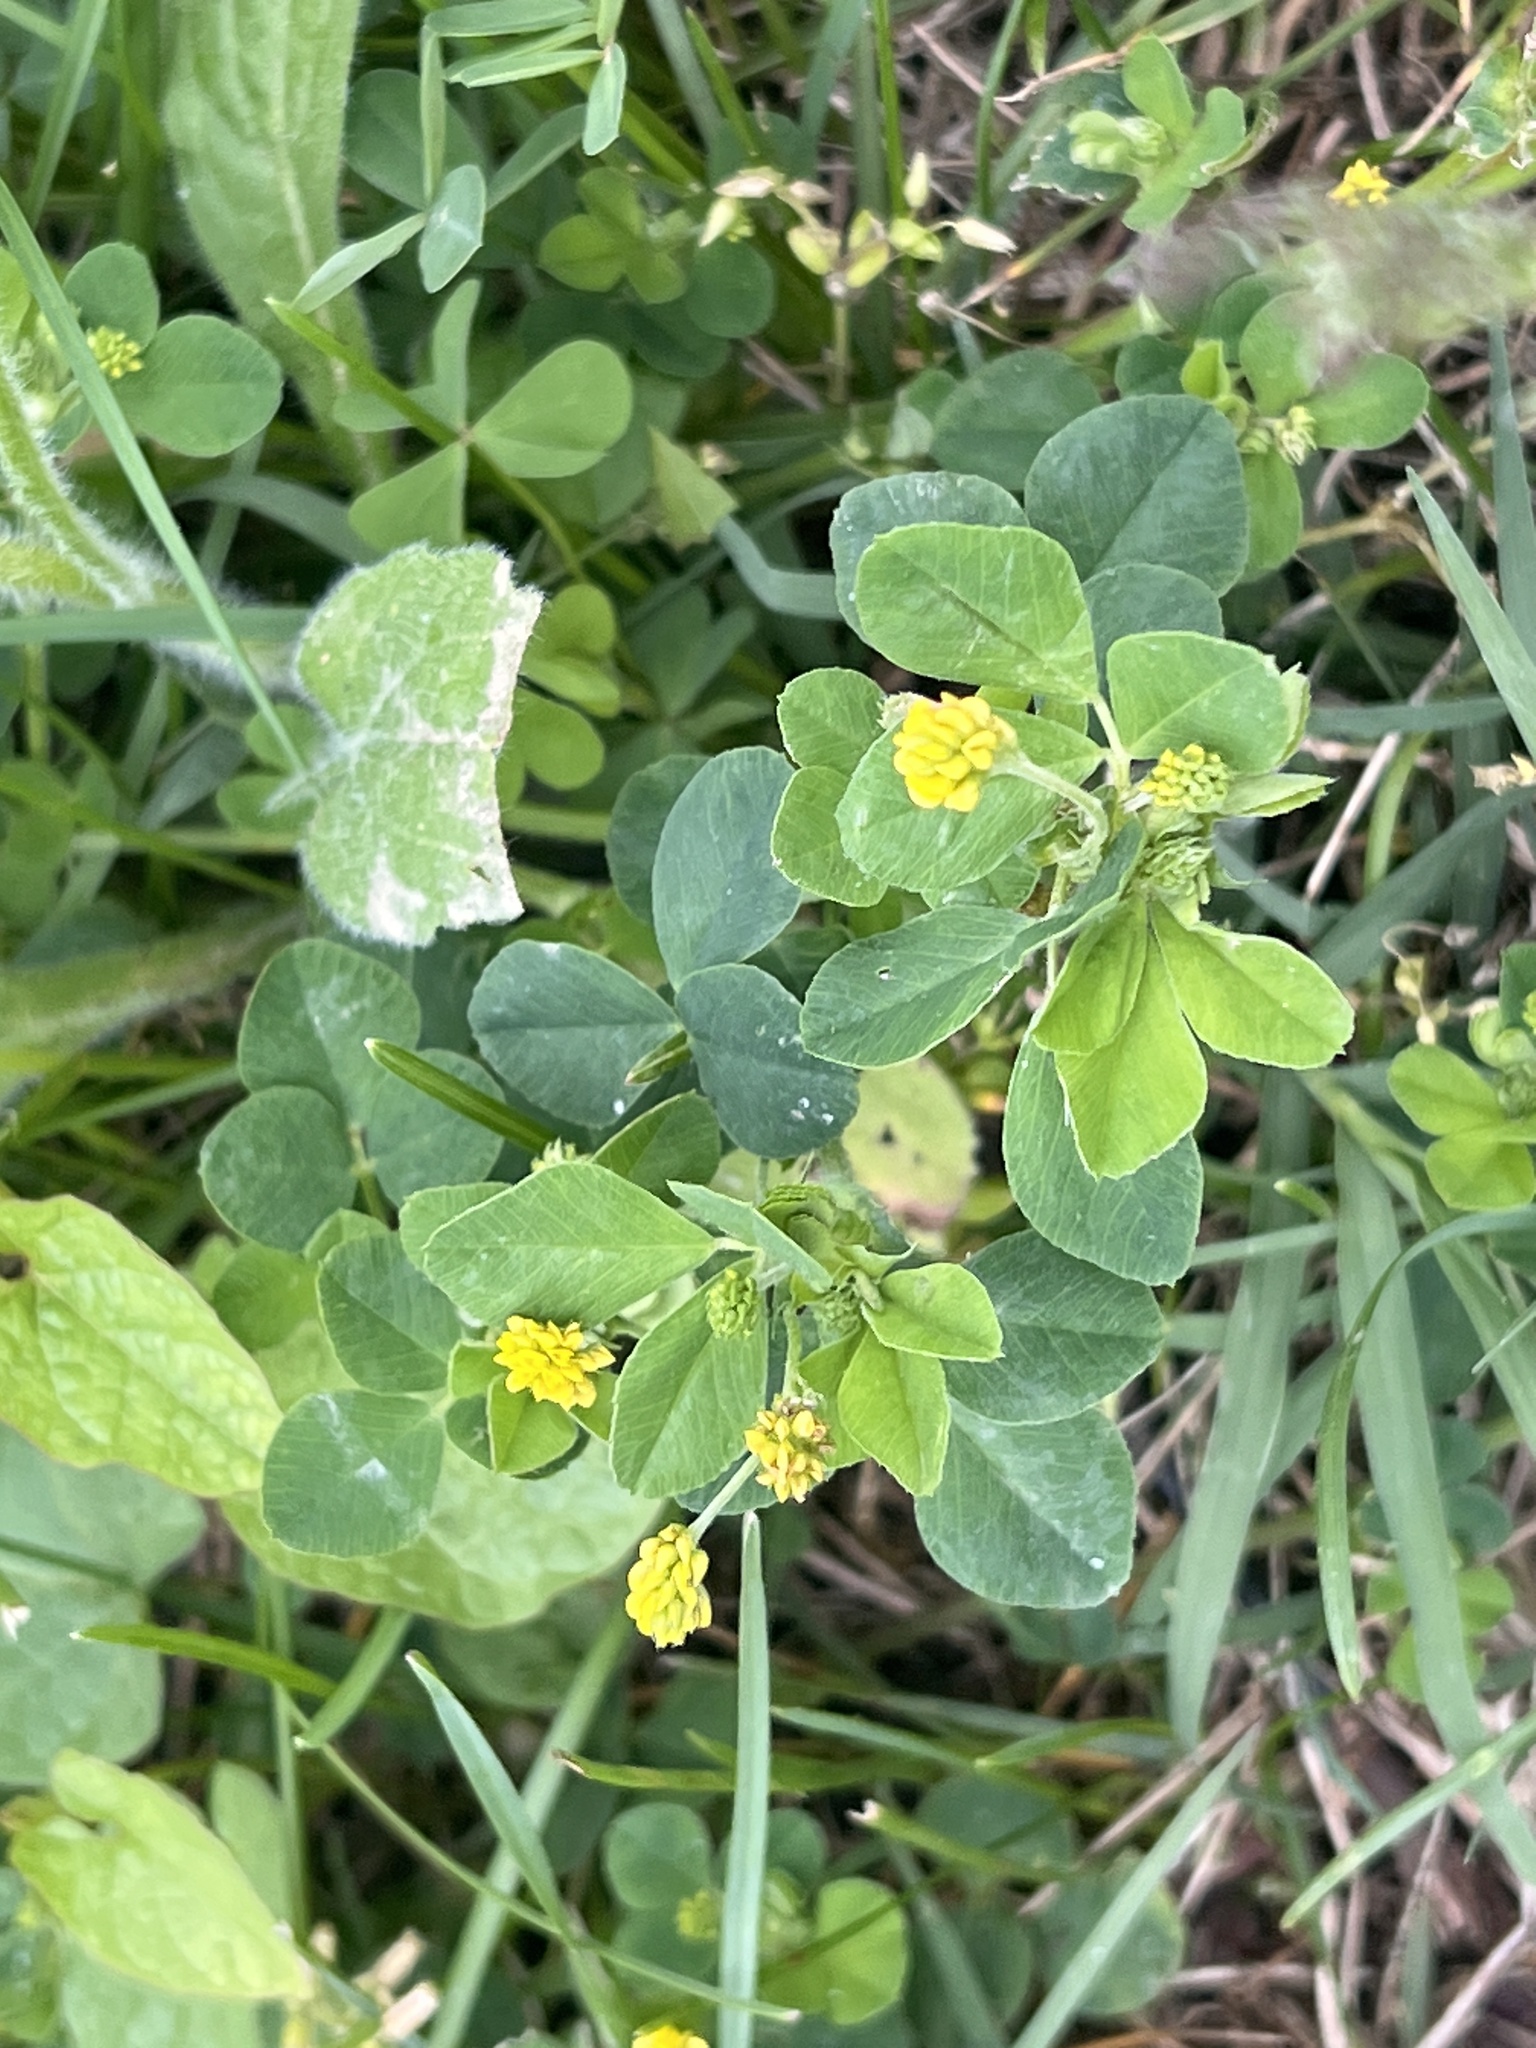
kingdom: Plantae
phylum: Tracheophyta
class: Magnoliopsida
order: Fabales
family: Fabaceae
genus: Medicago
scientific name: Medicago lupulina
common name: Black medick
